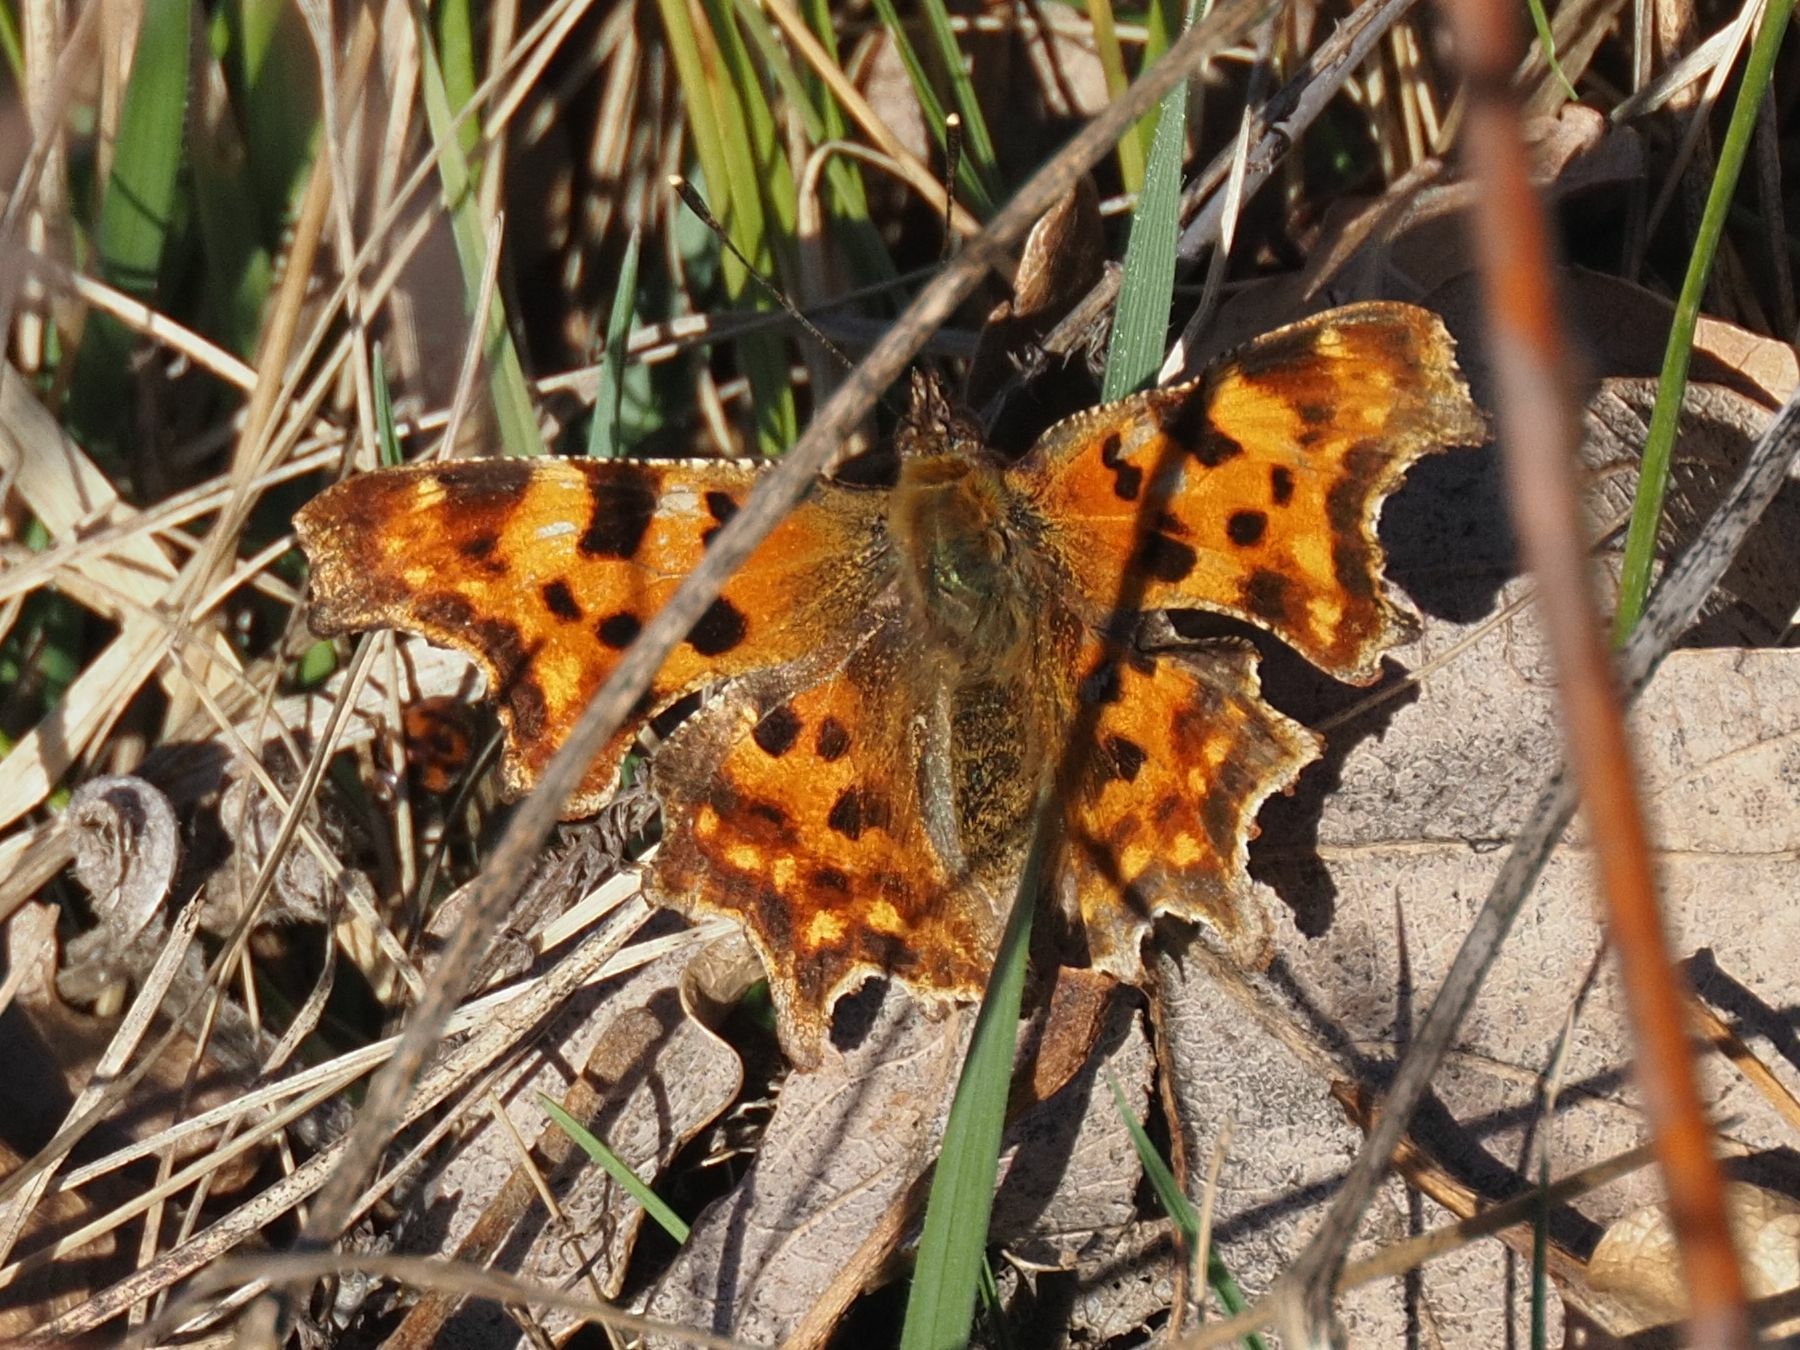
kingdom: Animalia
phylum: Arthropoda
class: Insecta
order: Lepidoptera
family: Nymphalidae
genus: Polygonia
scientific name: Polygonia c-album
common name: Comma
